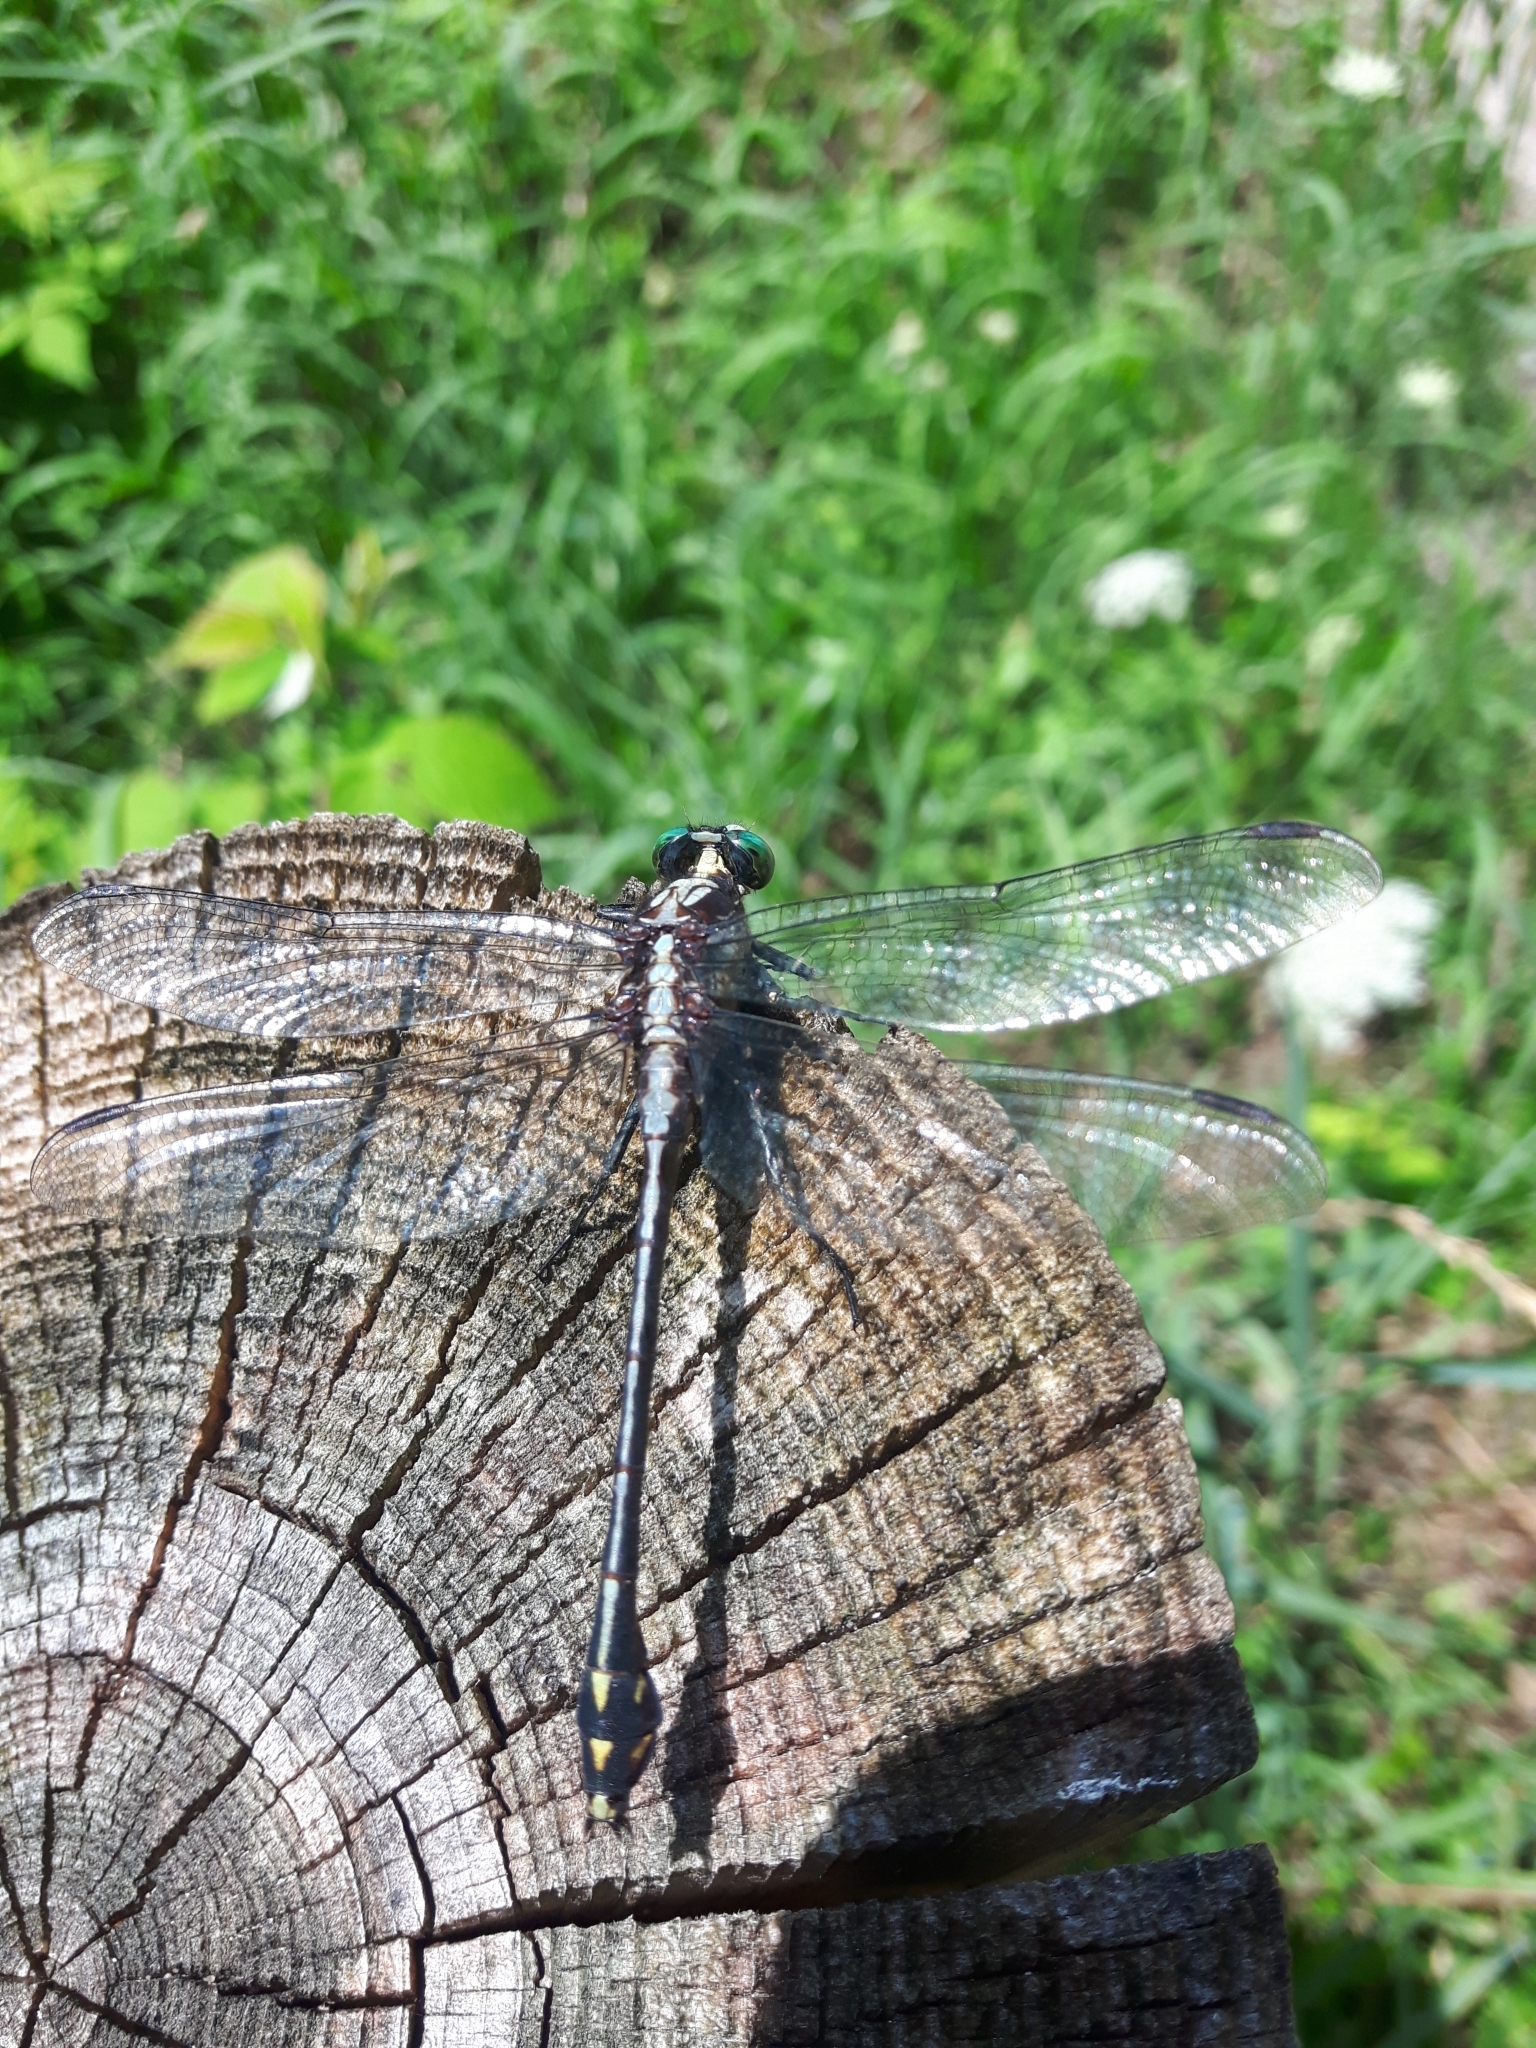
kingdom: Animalia
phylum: Arthropoda
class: Insecta
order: Odonata
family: Gomphidae
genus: Dromogomphus
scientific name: Dromogomphus spinosus
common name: Black-shouldered spinyleg
